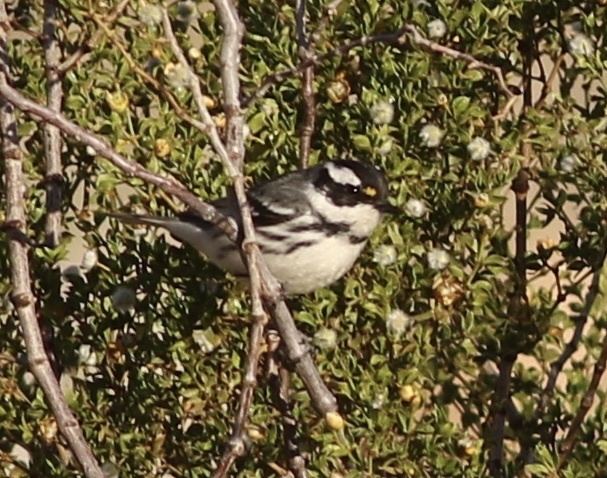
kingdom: Animalia
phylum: Chordata
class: Aves
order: Passeriformes
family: Parulidae
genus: Setophaga
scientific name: Setophaga nigrescens
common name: Black-throated gray warbler
